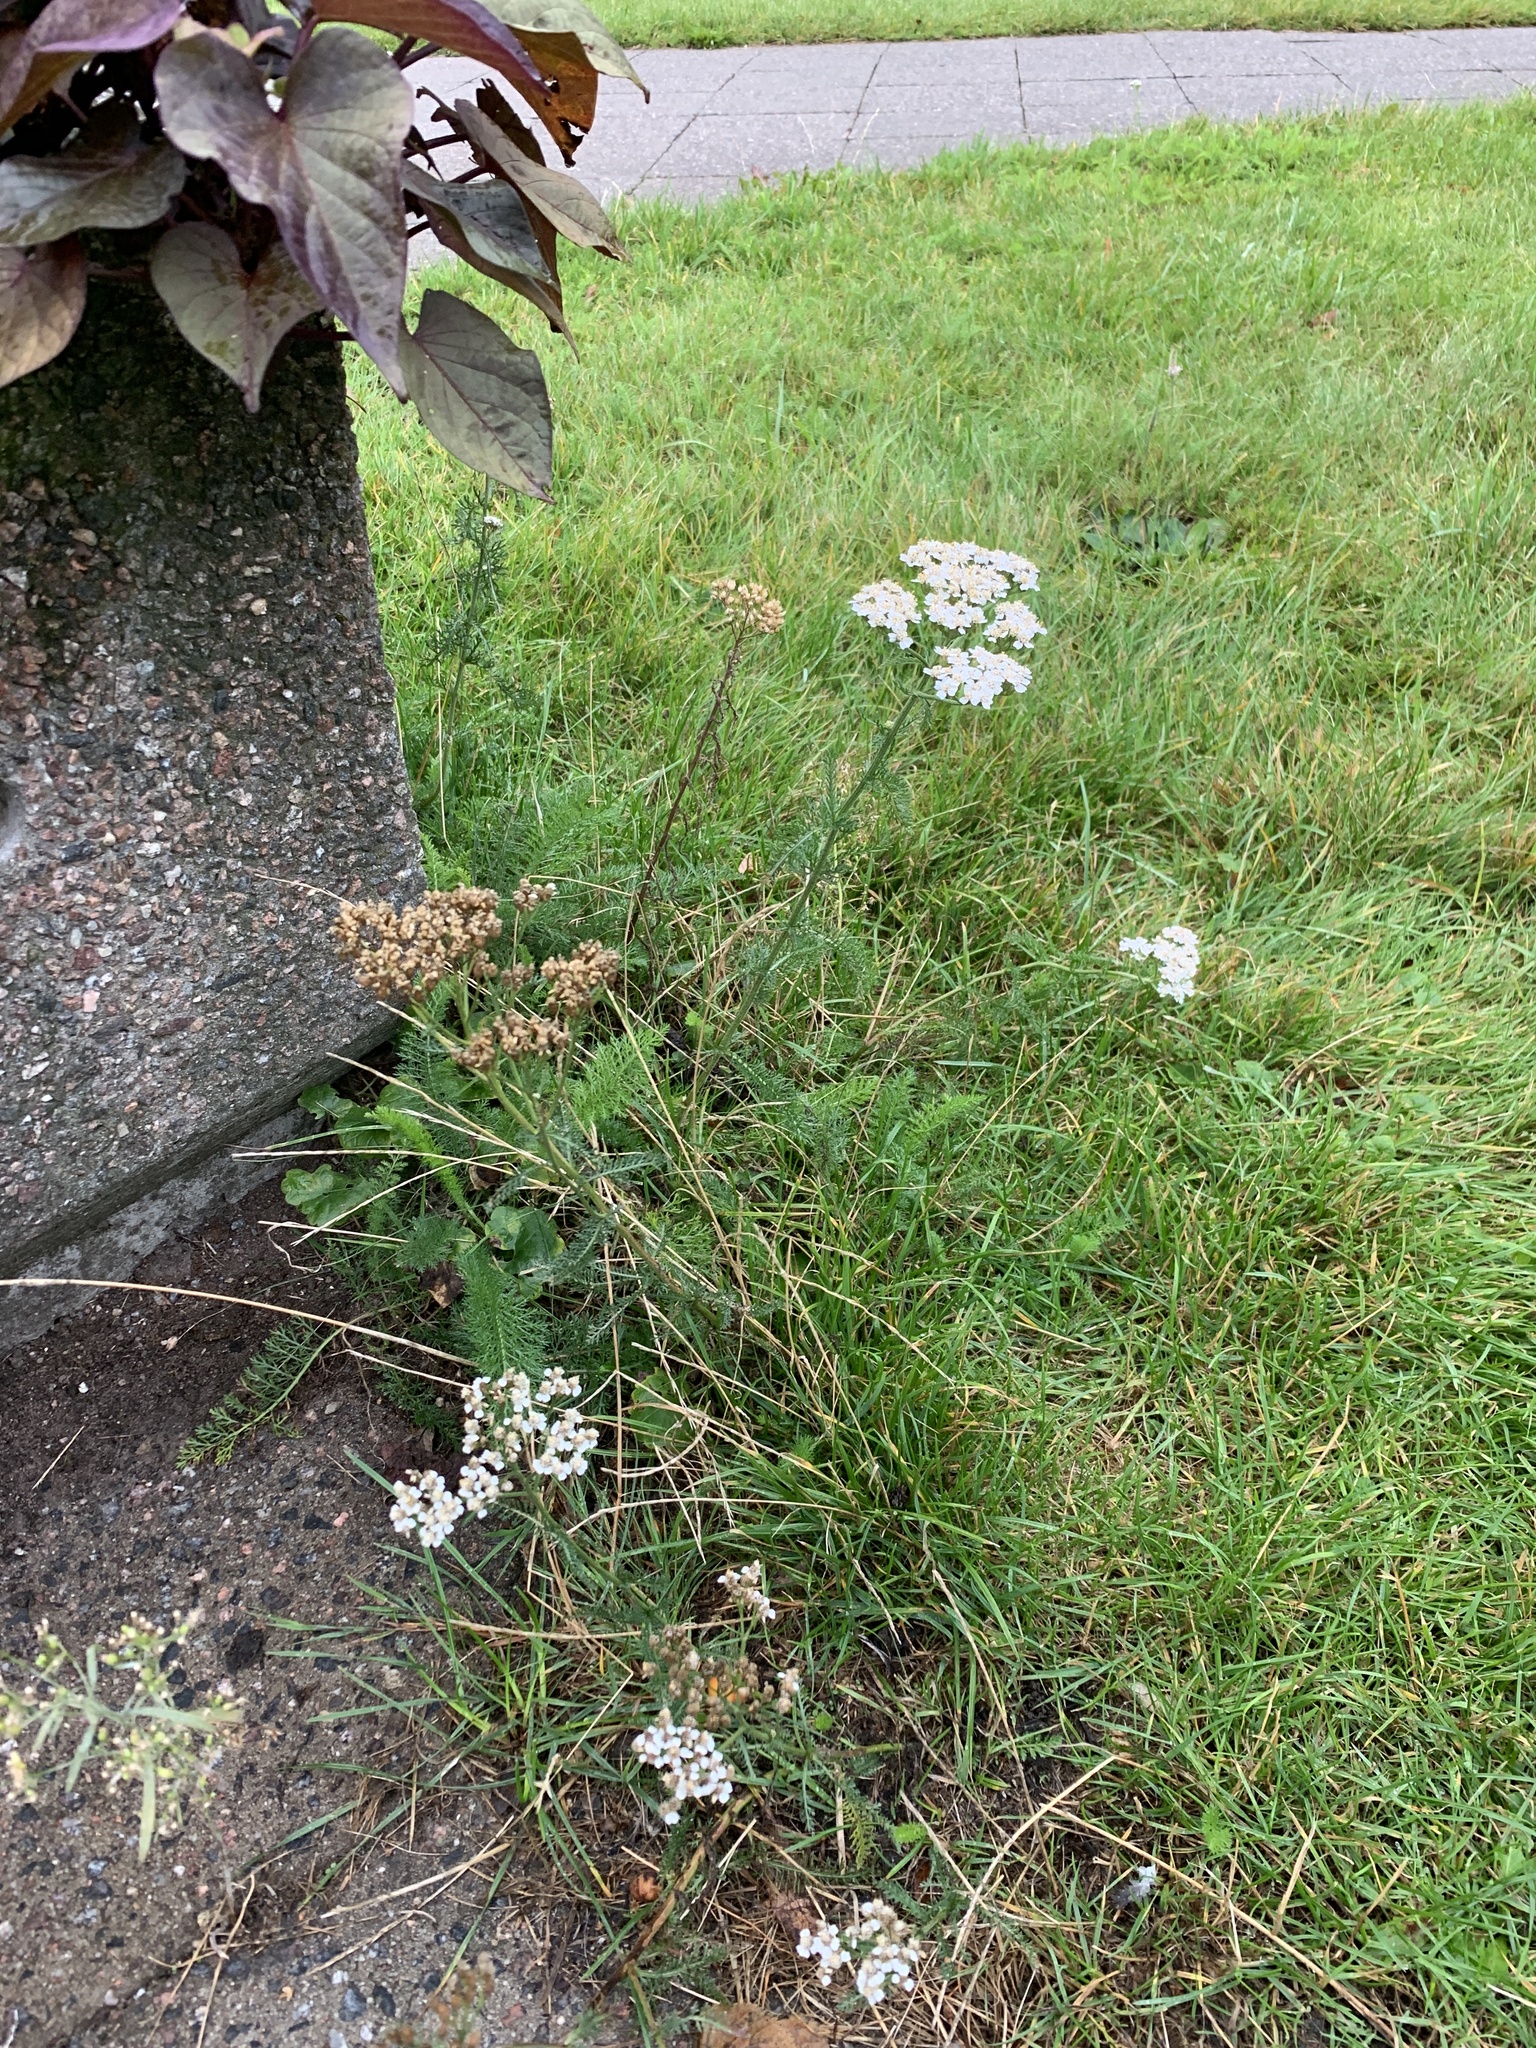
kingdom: Plantae
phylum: Tracheophyta
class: Magnoliopsida
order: Asterales
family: Asteraceae
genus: Achillea
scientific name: Achillea millefolium
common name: Yarrow
